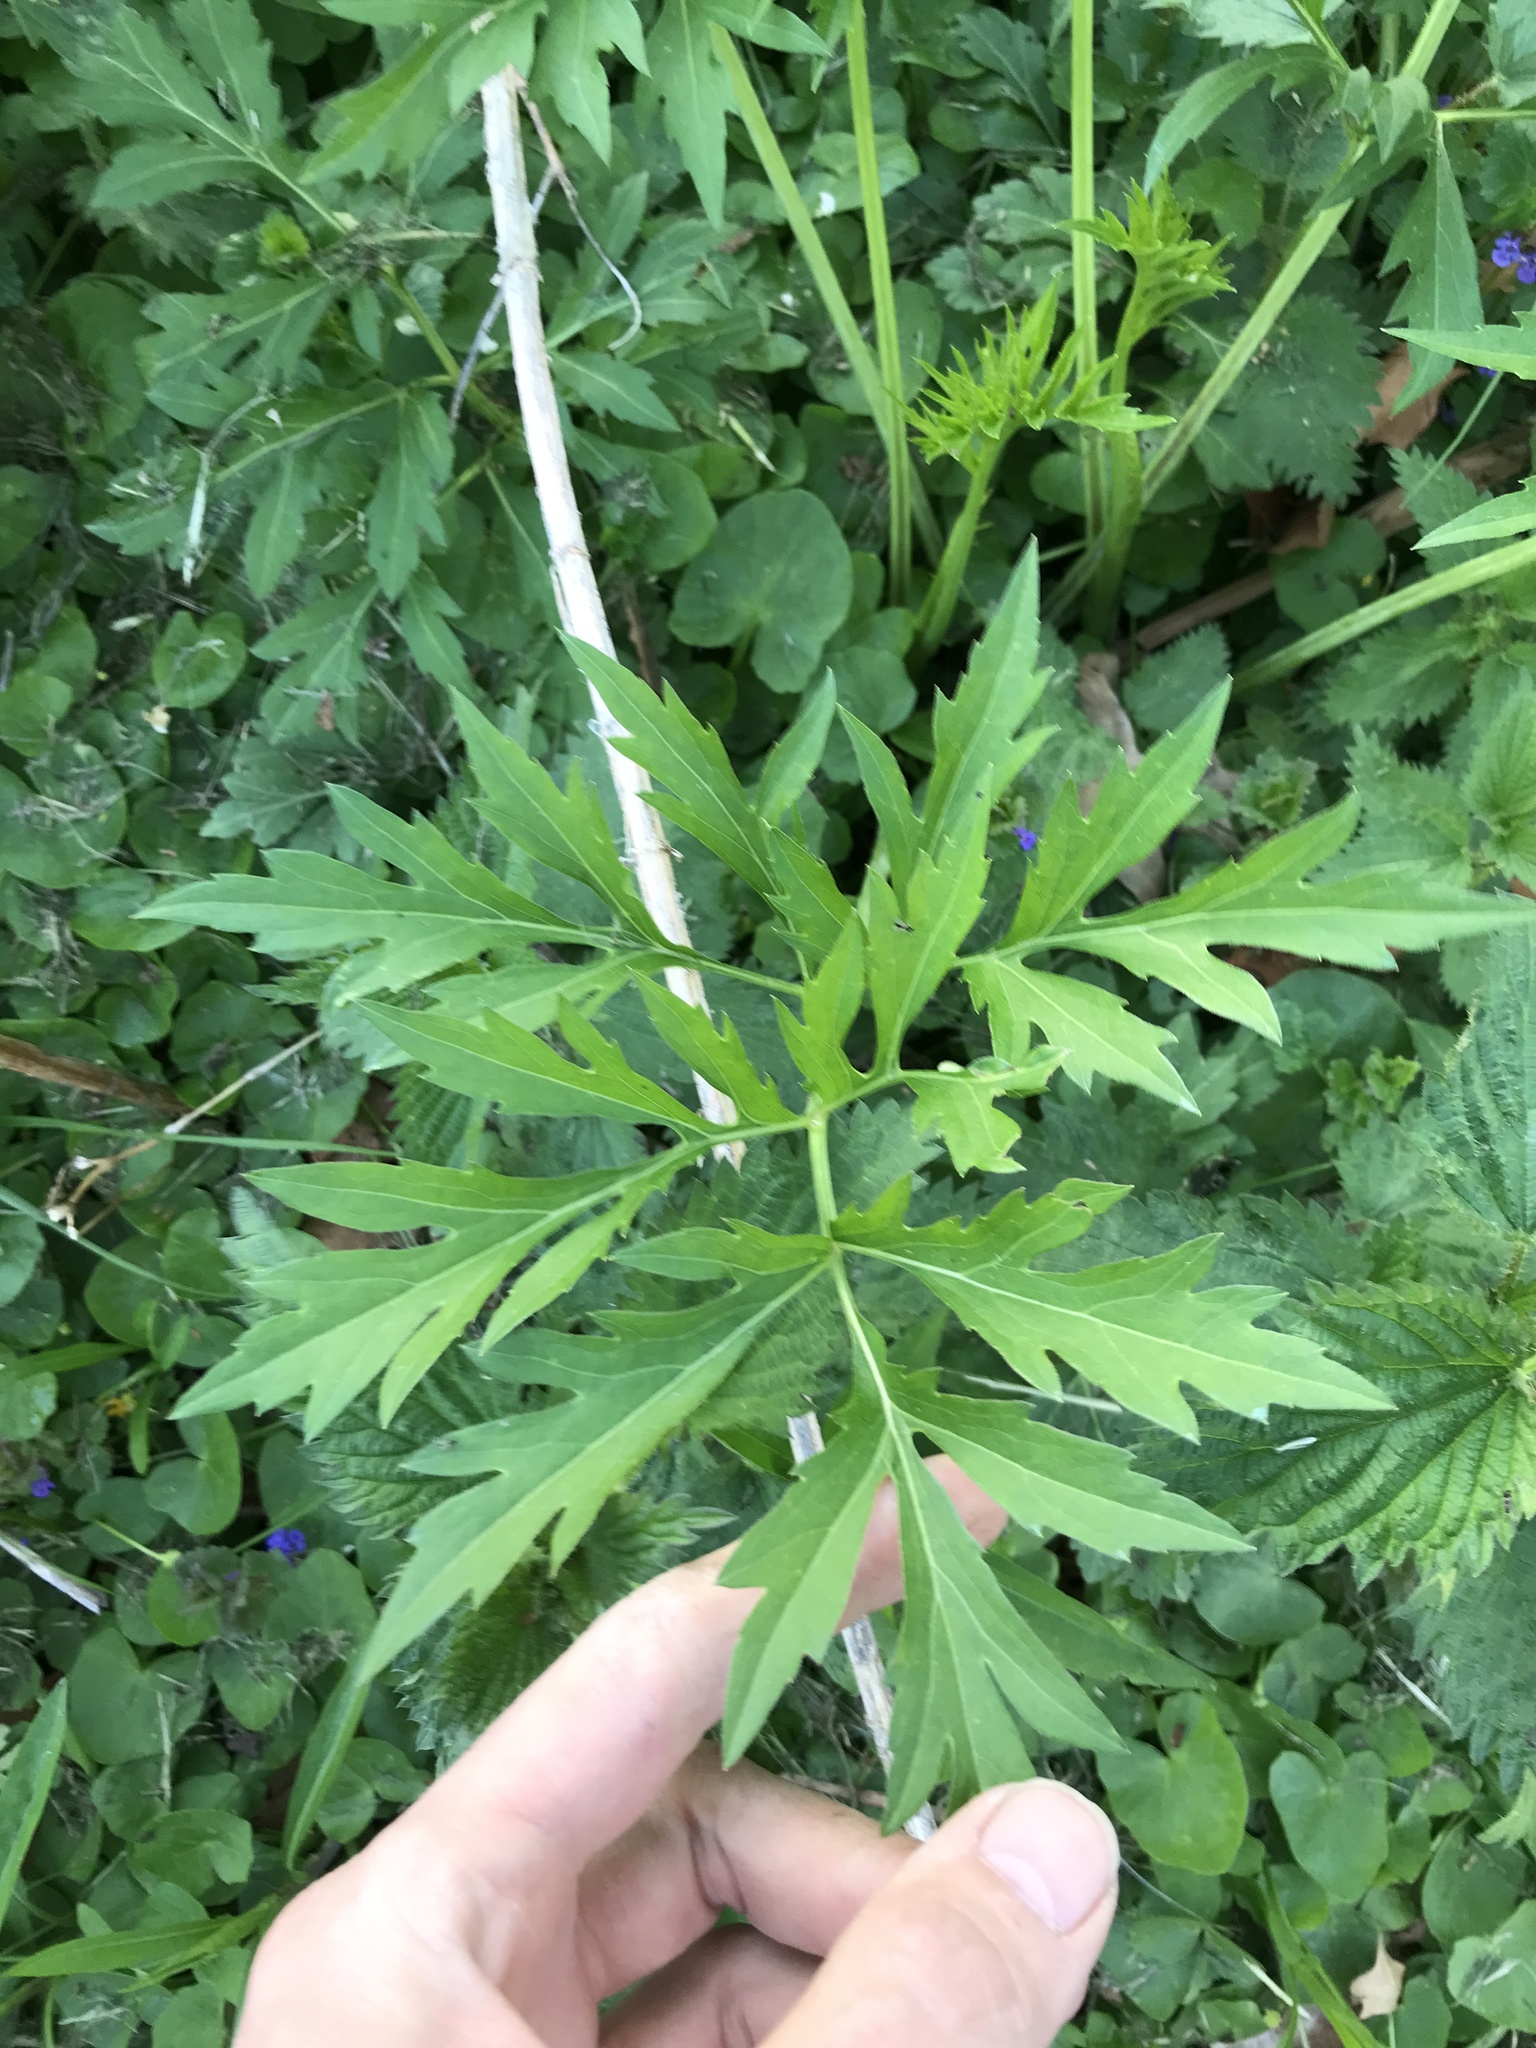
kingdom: Plantae
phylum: Tracheophyta
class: Magnoliopsida
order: Asterales
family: Asteraceae
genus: Rudbeckia
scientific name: Rudbeckia laciniata
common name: Coneflower
